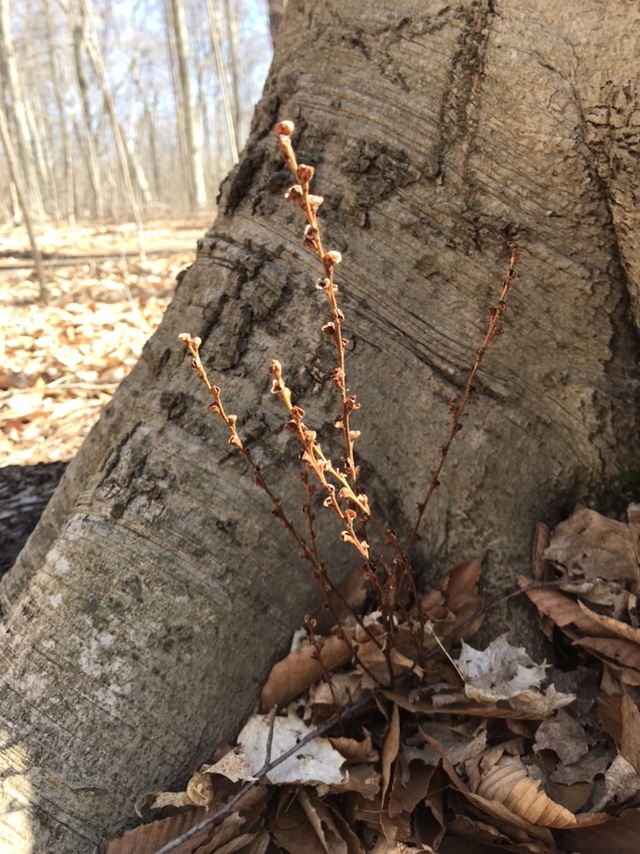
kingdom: Plantae
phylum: Tracheophyta
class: Magnoliopsida
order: Lamiales
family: Orobanchaceae
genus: Epifagus
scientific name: Epifagus virginiana
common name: Beechdrops
